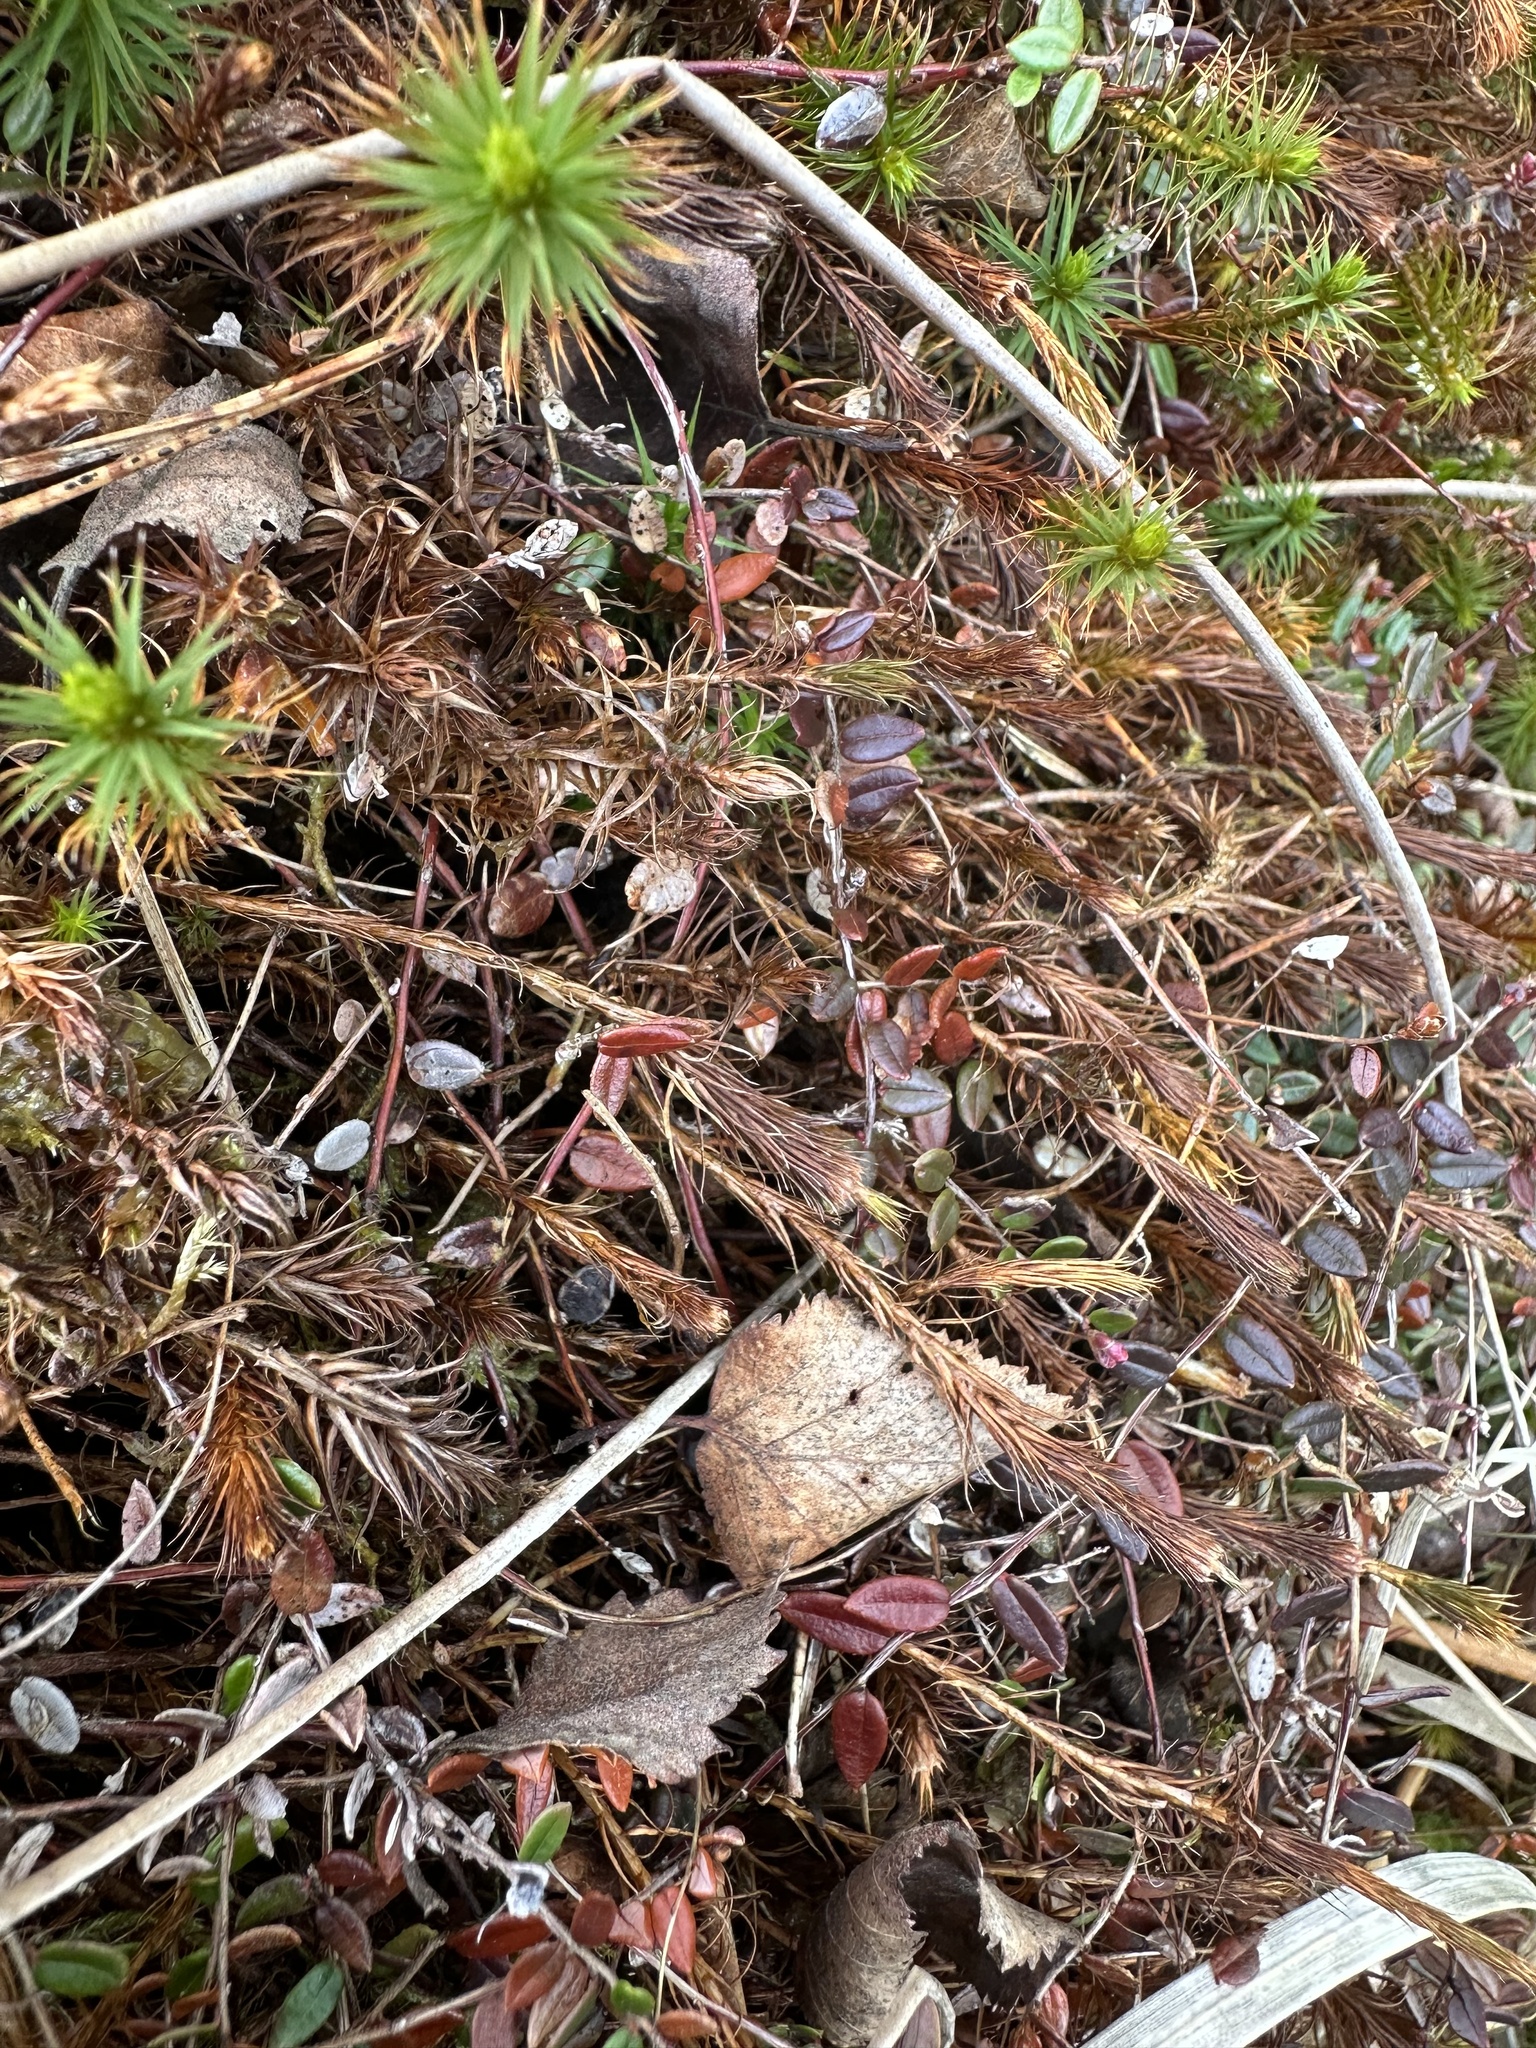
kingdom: Plantae
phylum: Tracheophyta
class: Magnoliopsida
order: Ericales
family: Ericaceae
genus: Vaccinium
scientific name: Vaccinium oxycoccos
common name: Cranberry
